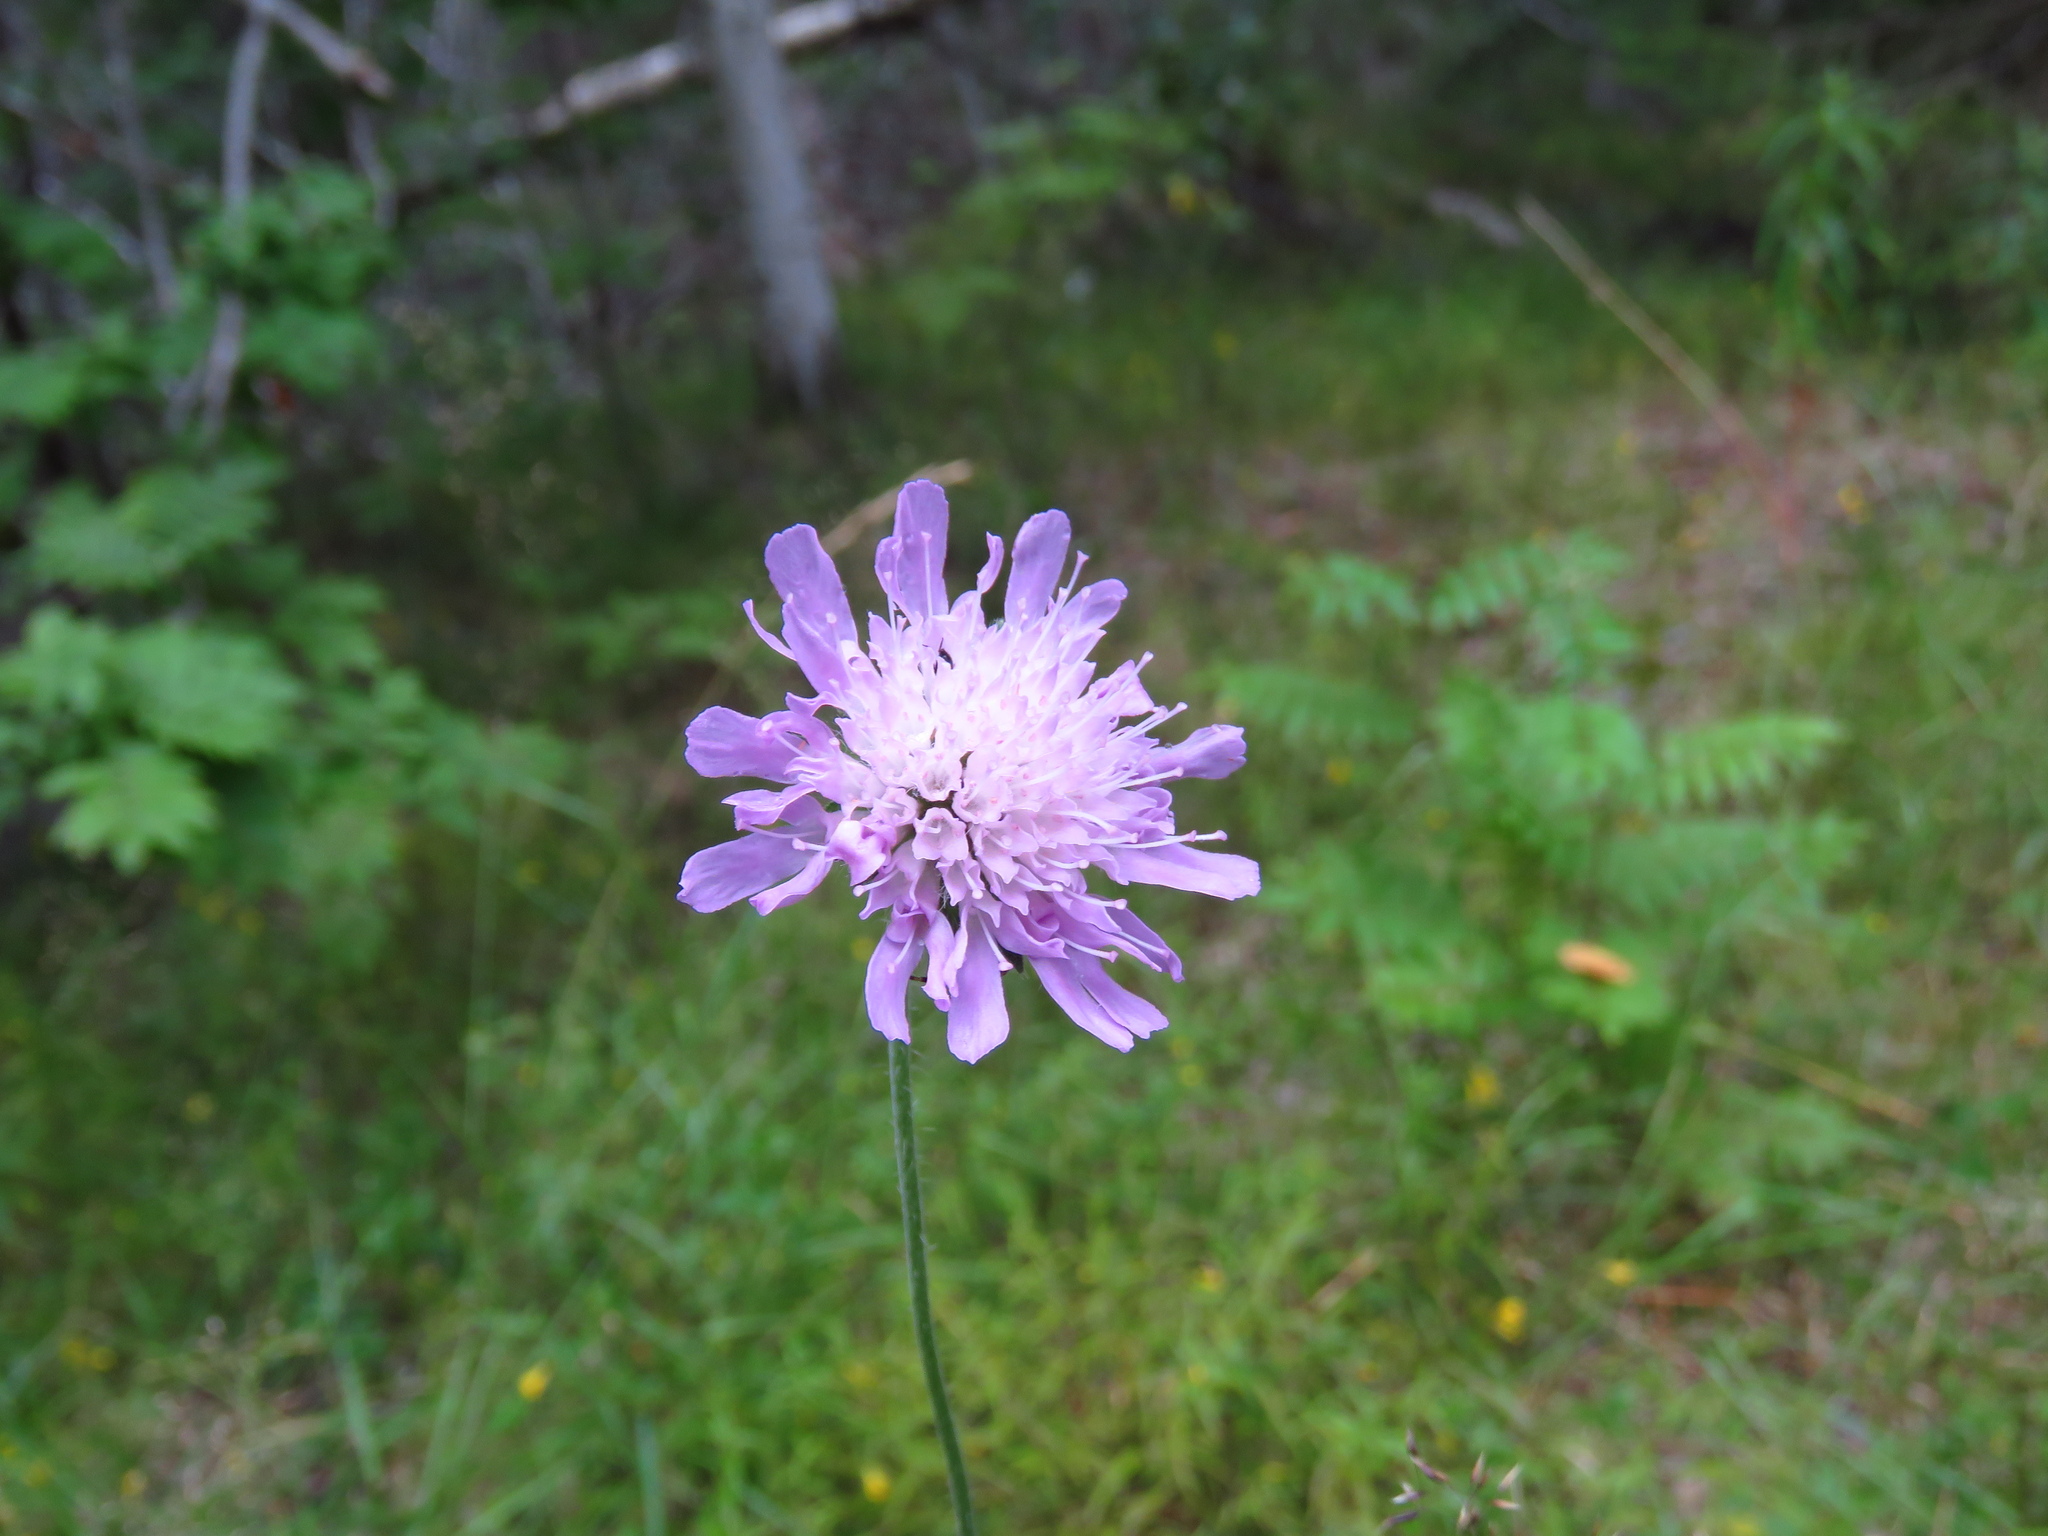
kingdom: Plantae
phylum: Tracheophyta
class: Magnoliopsida
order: Dipsacales
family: Caprifoliaceae
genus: Knautia
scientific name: Knautia arvensis
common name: Field scabiosa
